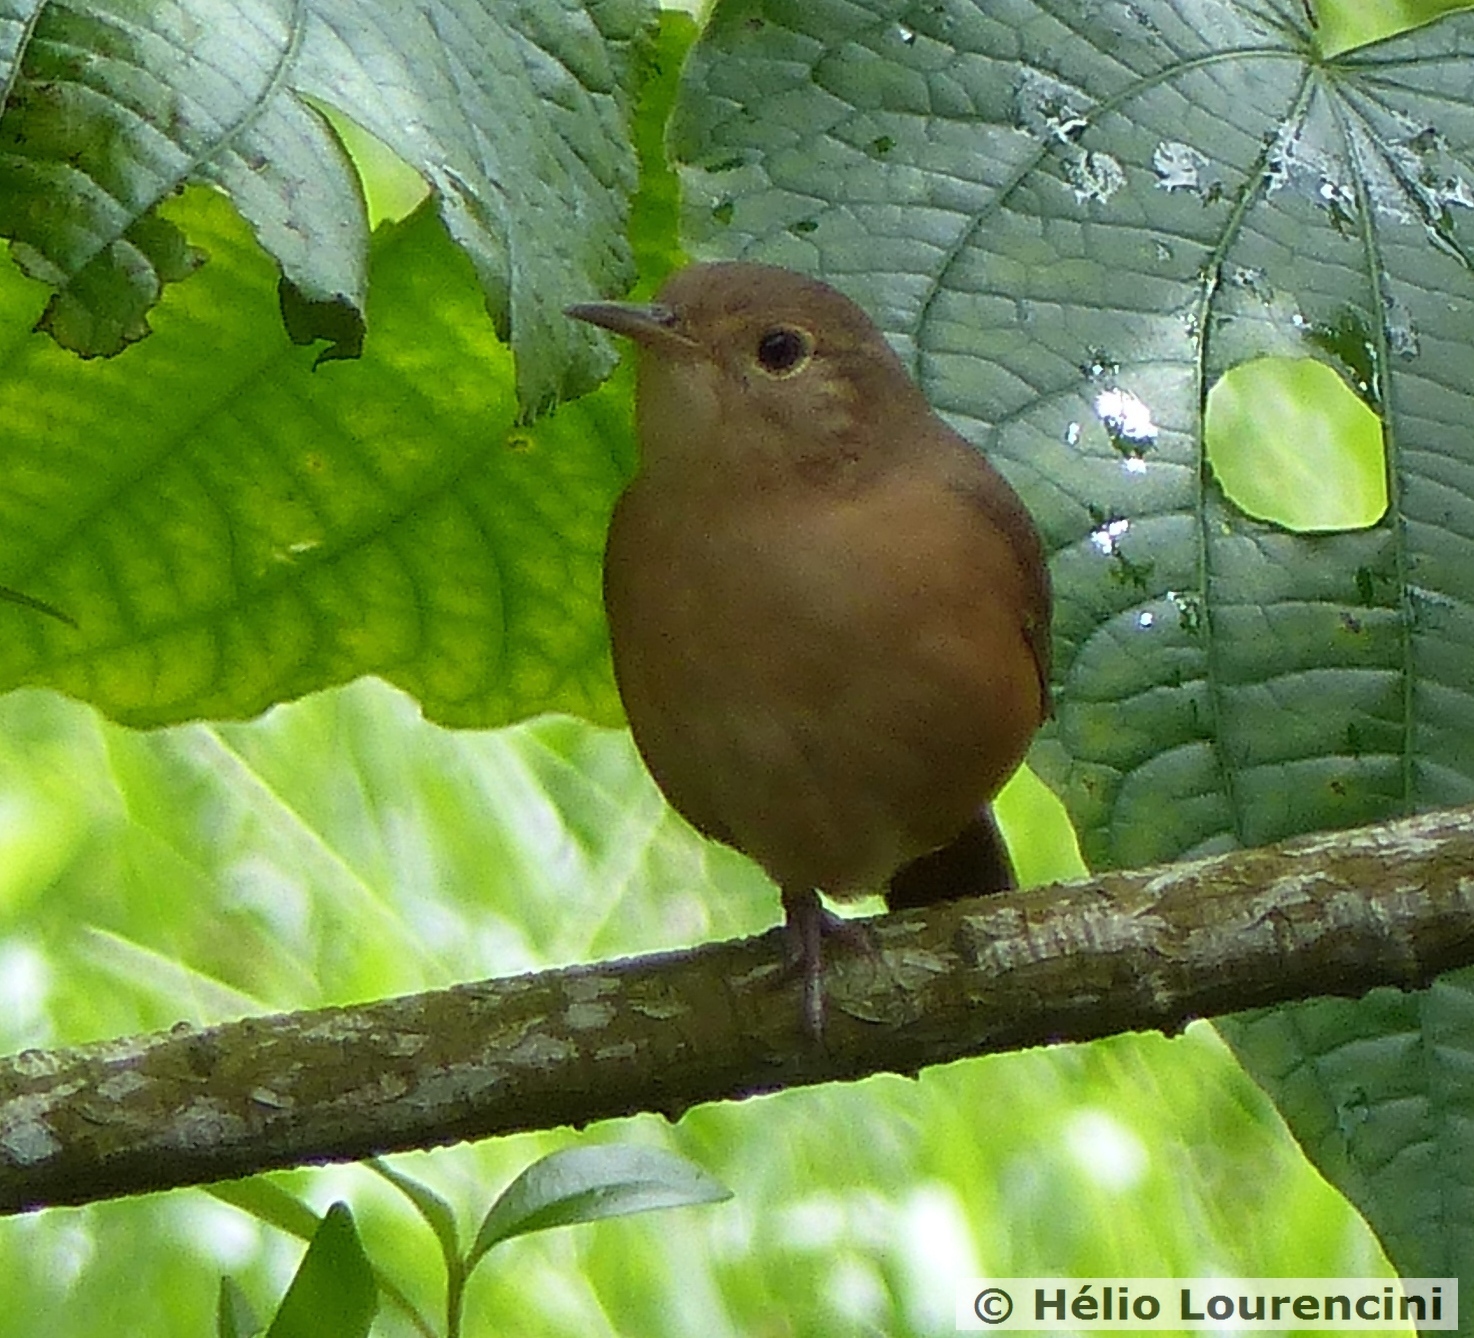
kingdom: Animalia
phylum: Chordata
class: Aves
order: Passeriformes
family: Troglodytidae
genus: Troglodytes
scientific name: Troglodytes aedon
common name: House wren
